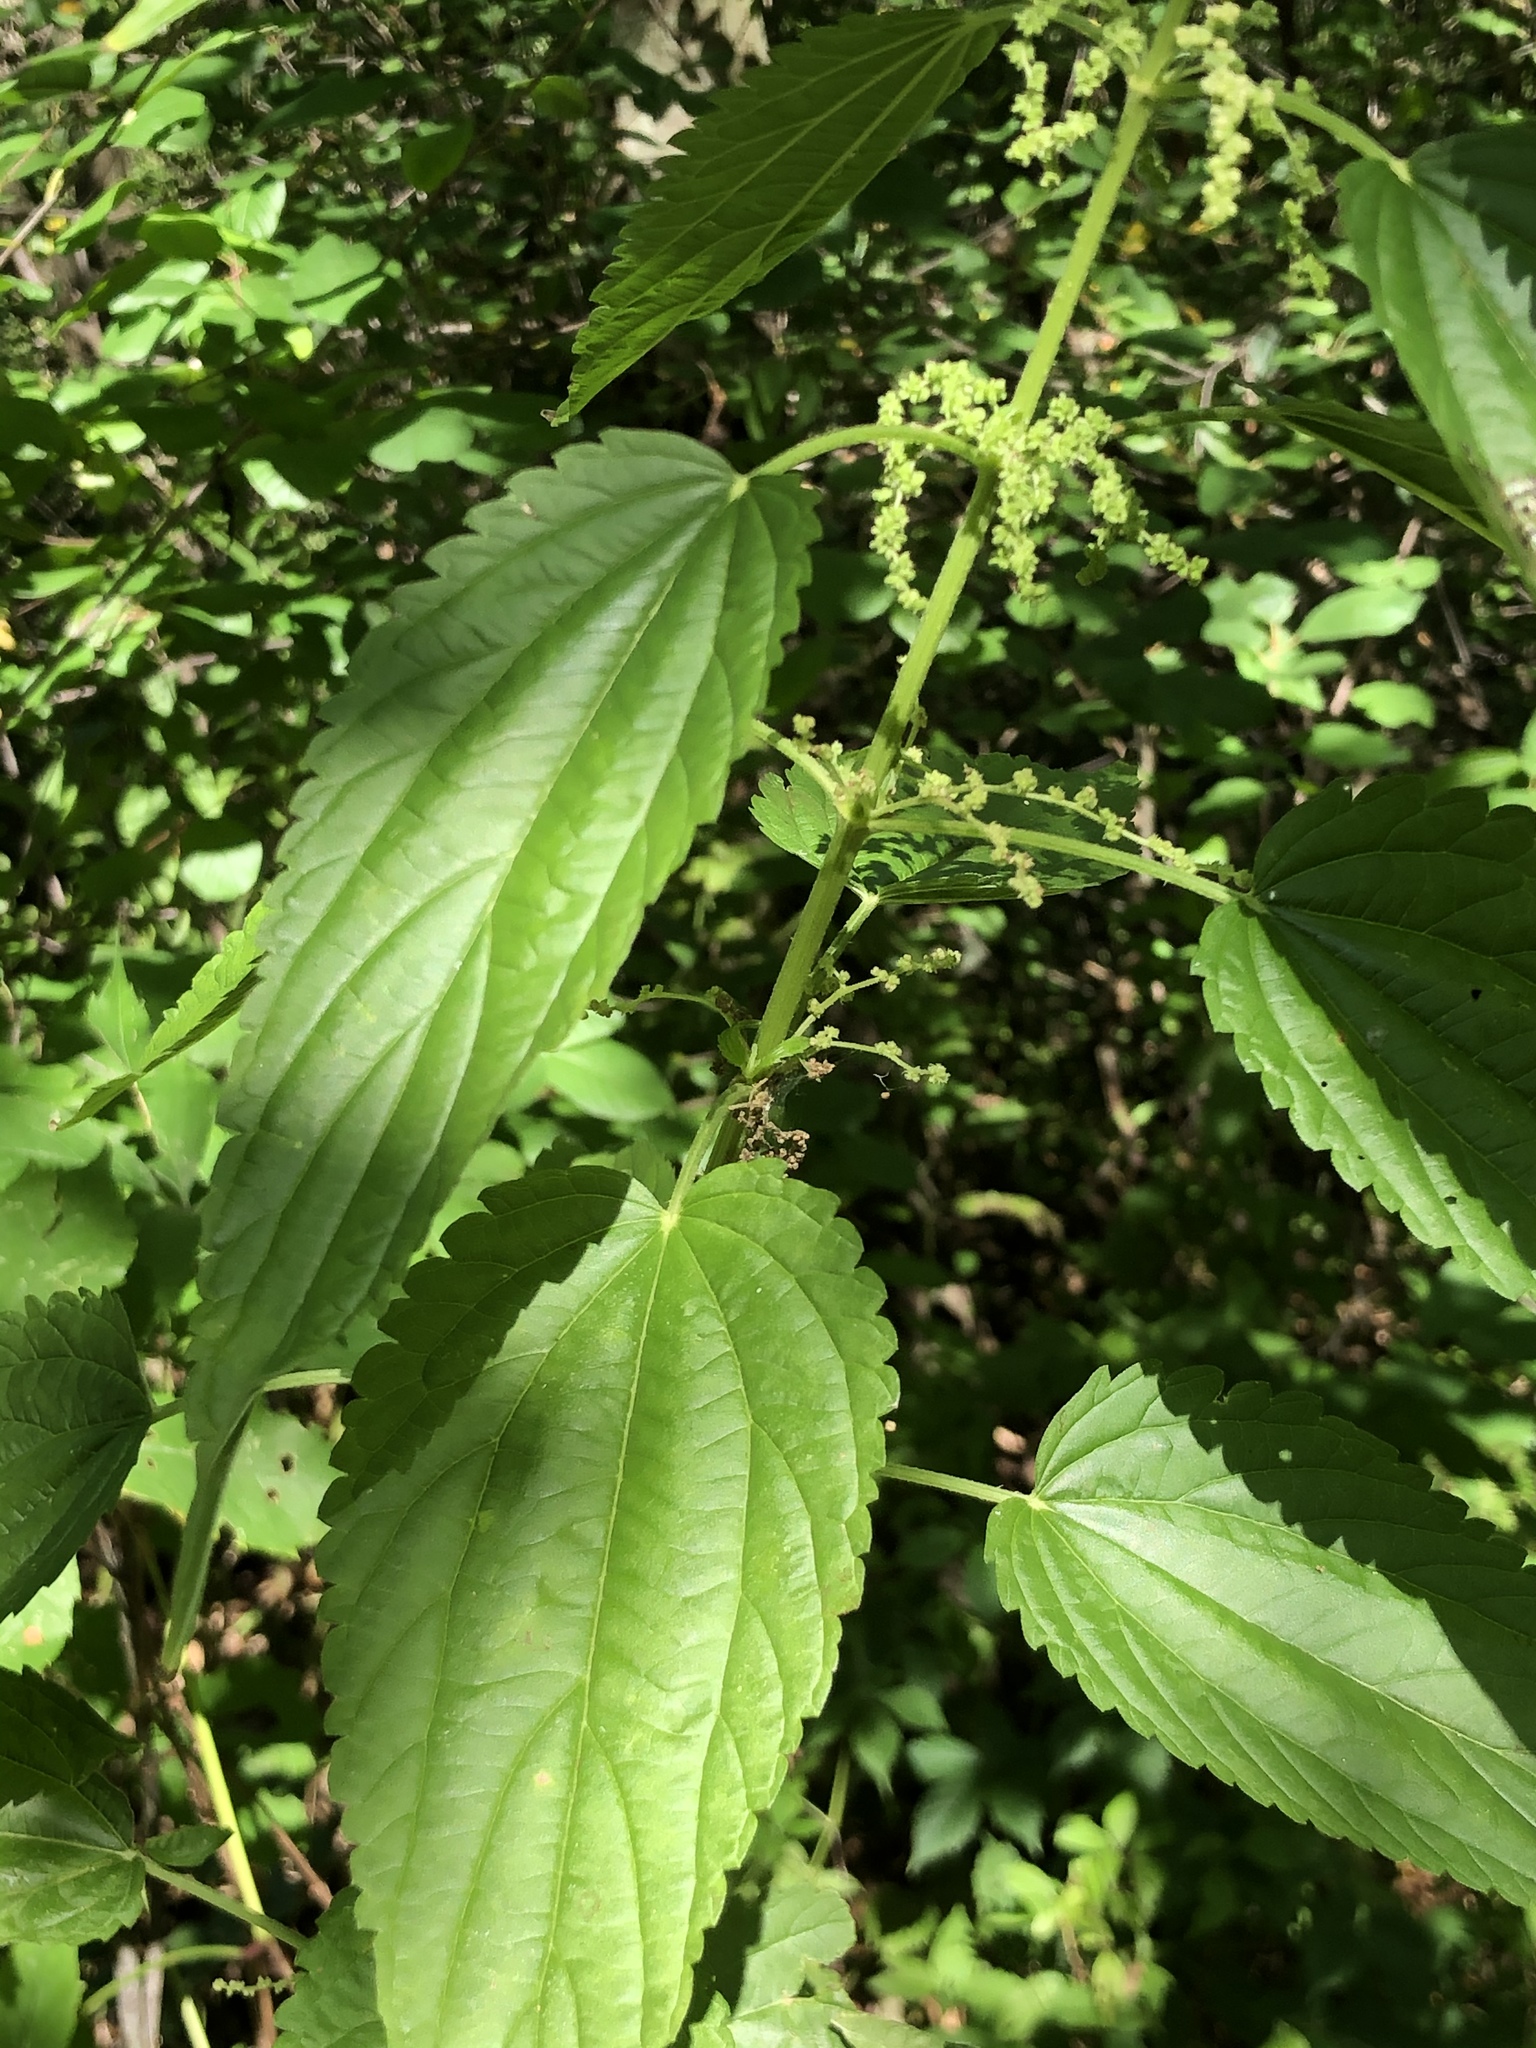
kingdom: Plantae
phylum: Tracheophyta
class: Magnoliopsida
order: Rosales
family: Urticaceae
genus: Urtica
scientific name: Urtica dioica
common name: Common nettle
